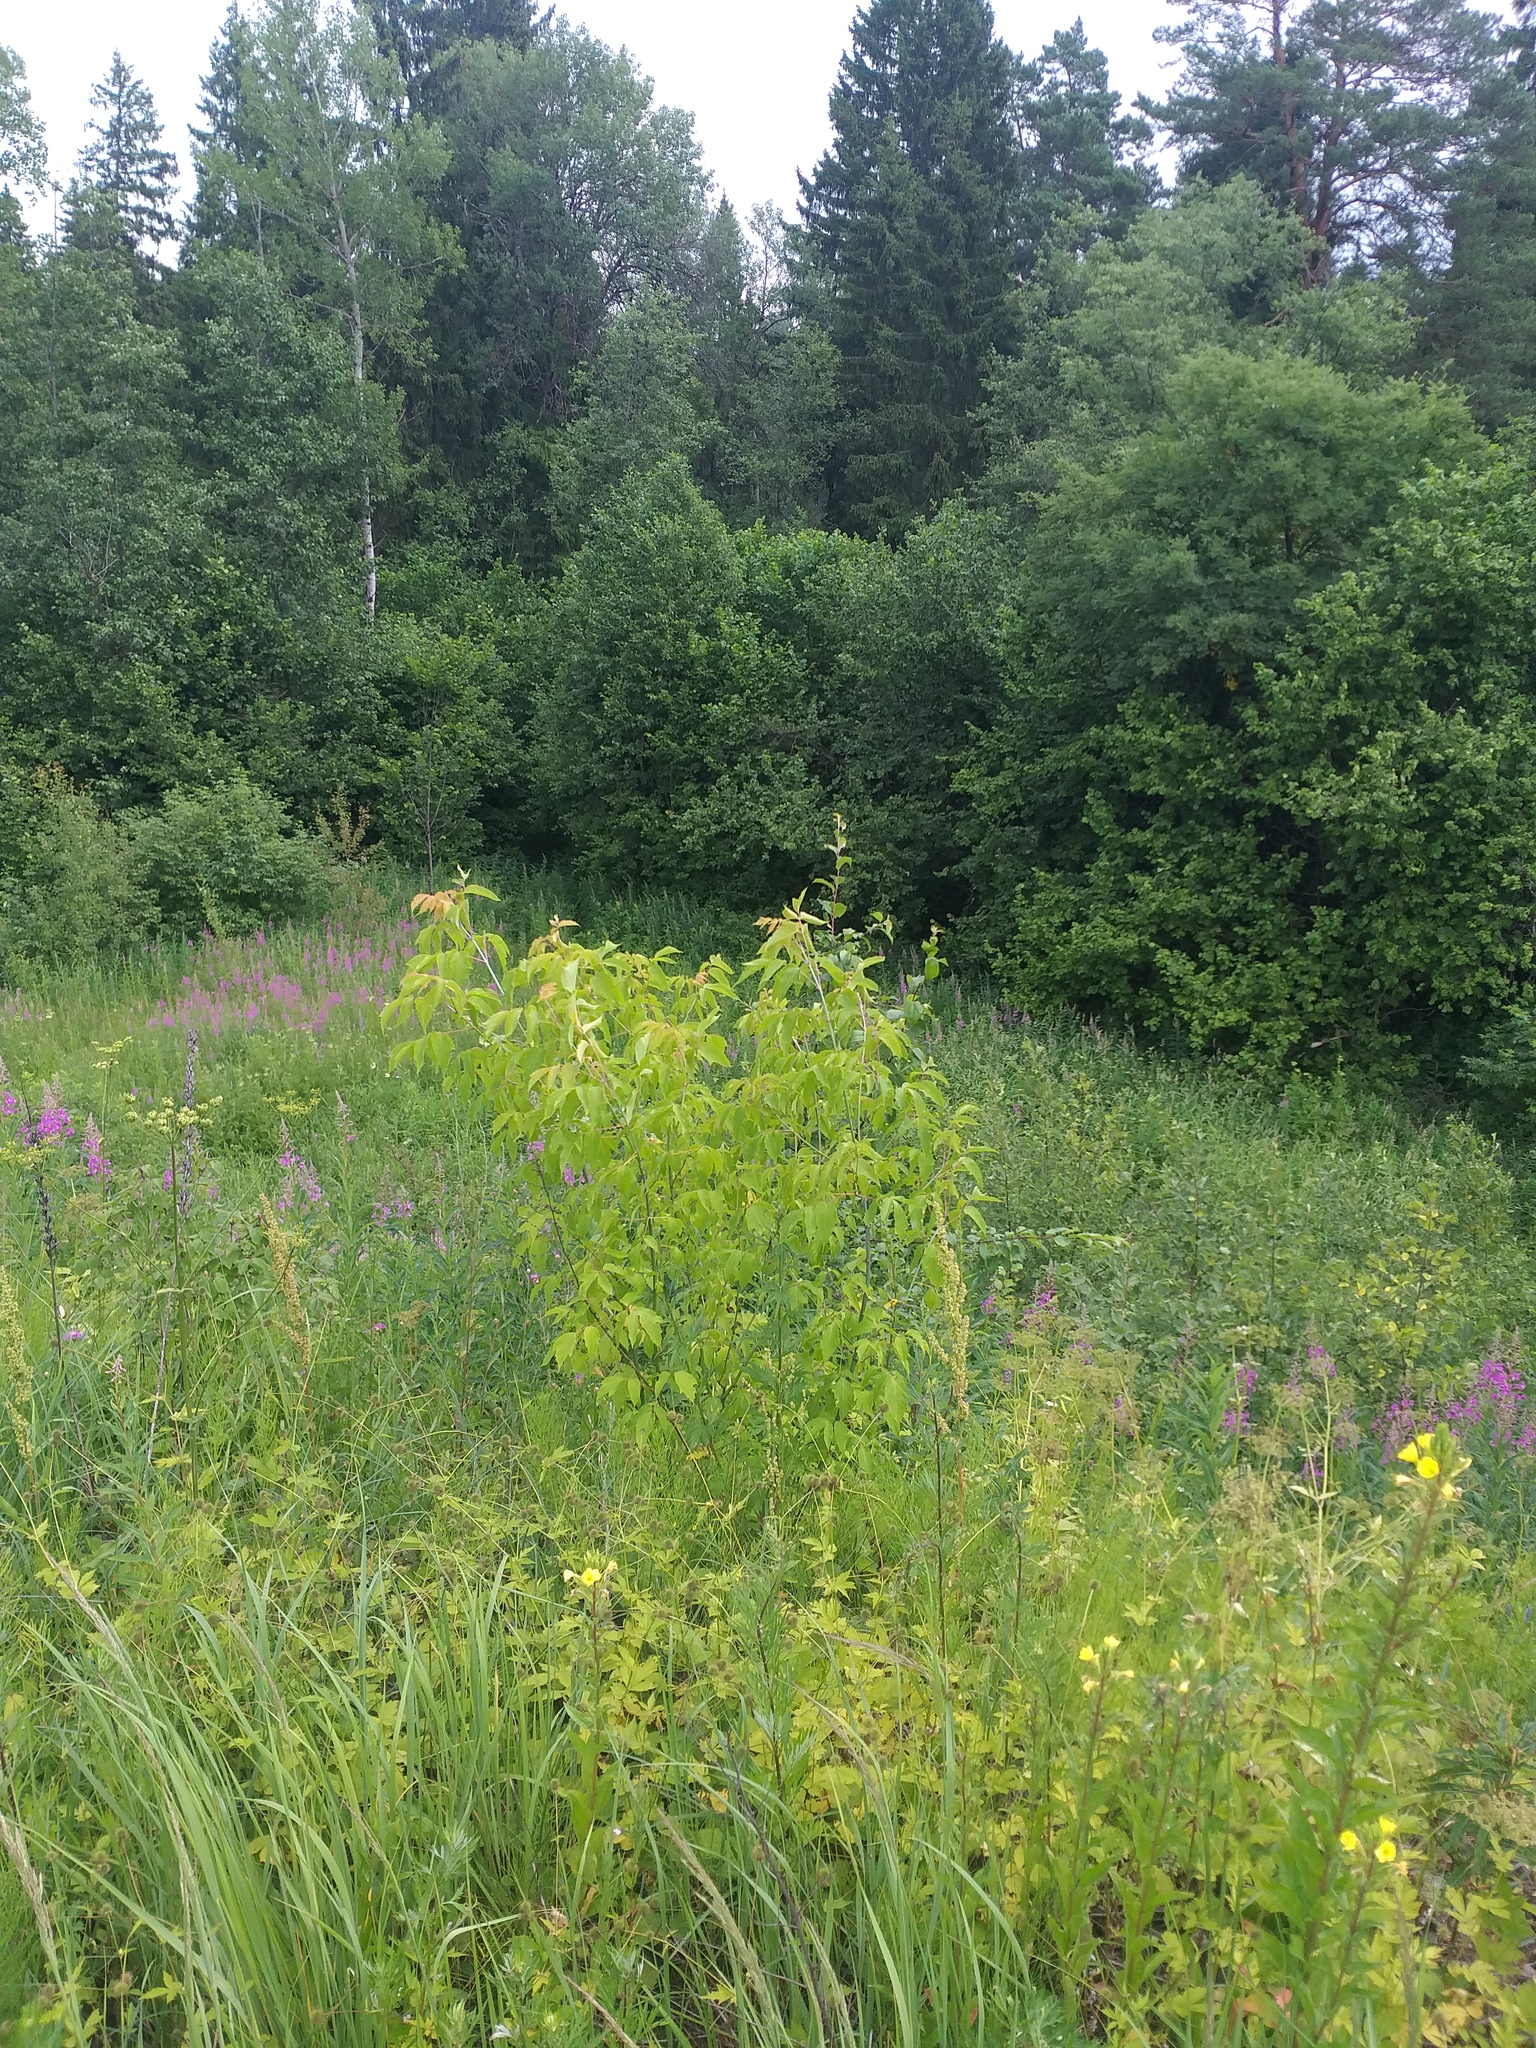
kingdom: Plantae
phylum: Tracheophyta
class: Magnoliopsida
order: Sapindales
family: Sapindaceae
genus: Acer
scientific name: Acer negundo
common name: Ashleaf maple
